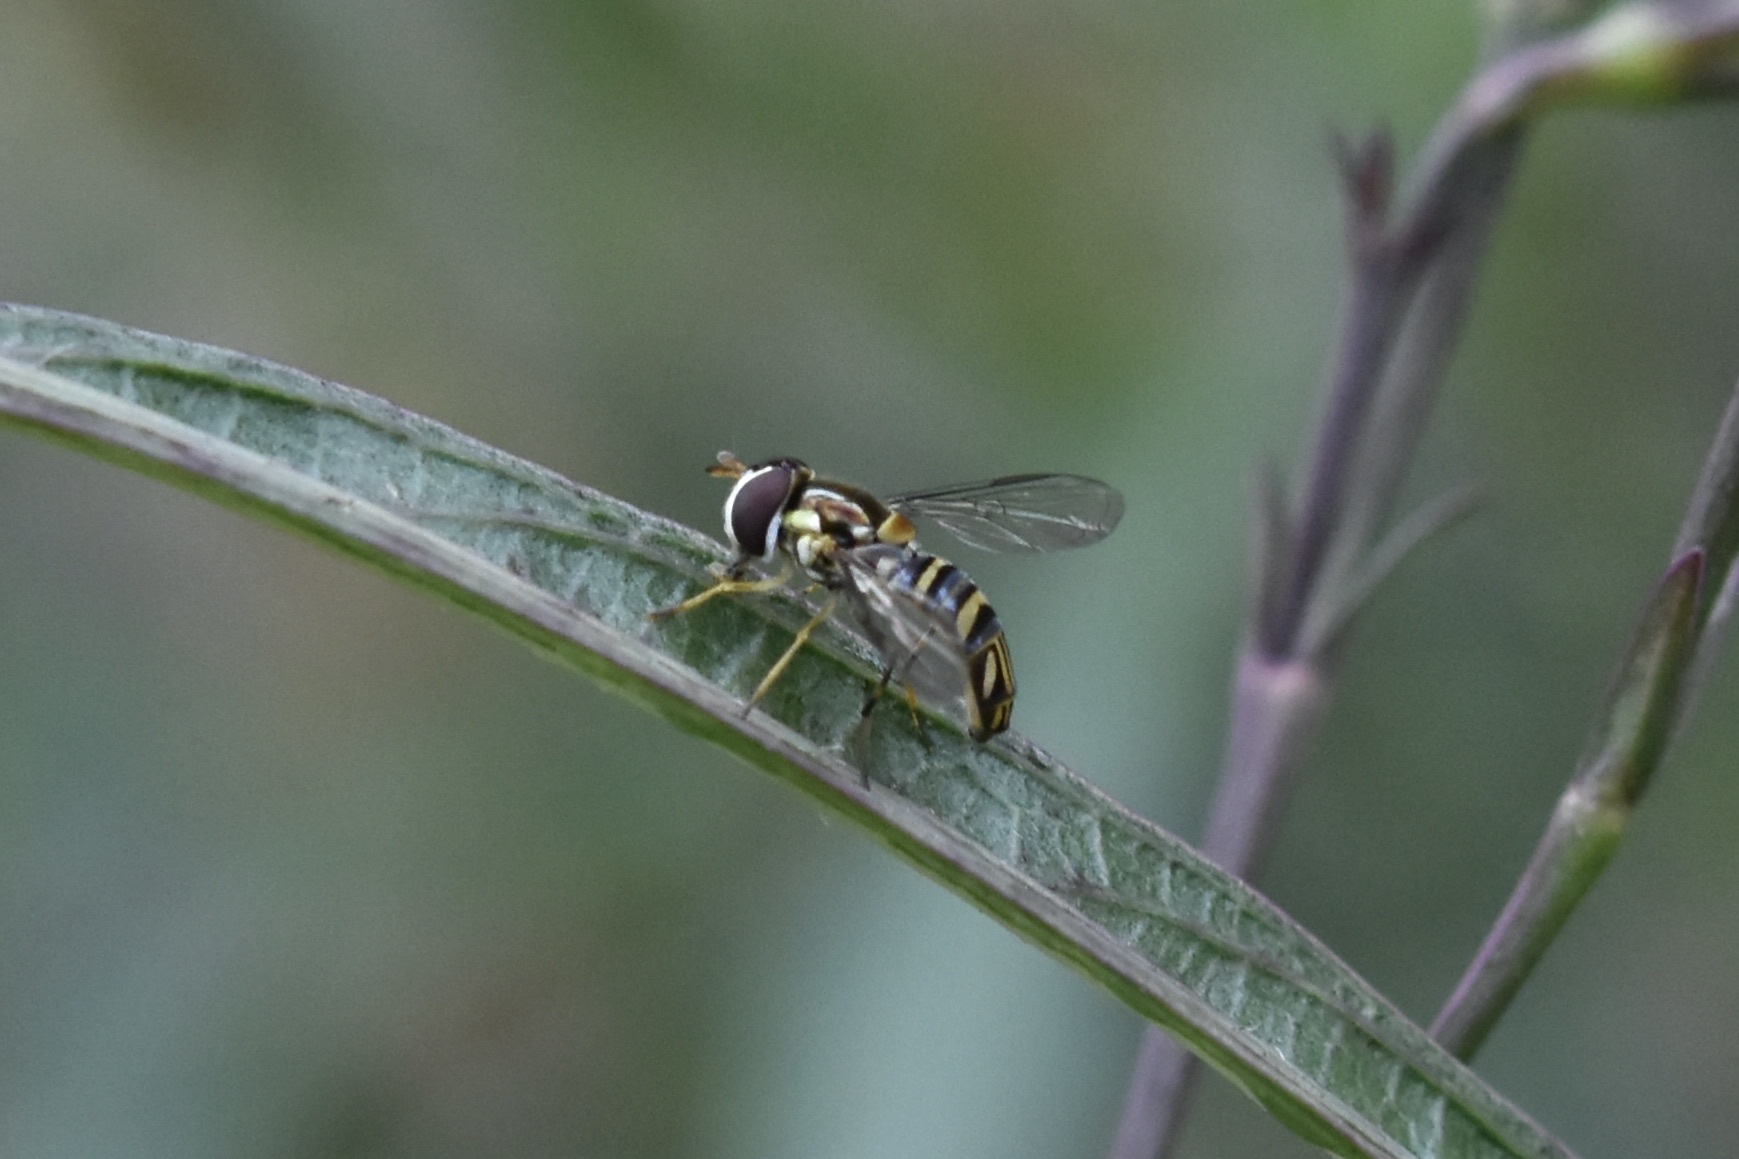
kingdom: Animalia
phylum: Arthropoda
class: Insecta
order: Diptera
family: Syrphidae
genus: Allograpta
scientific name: Allograpta obliqua
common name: Common oblique syrphid
